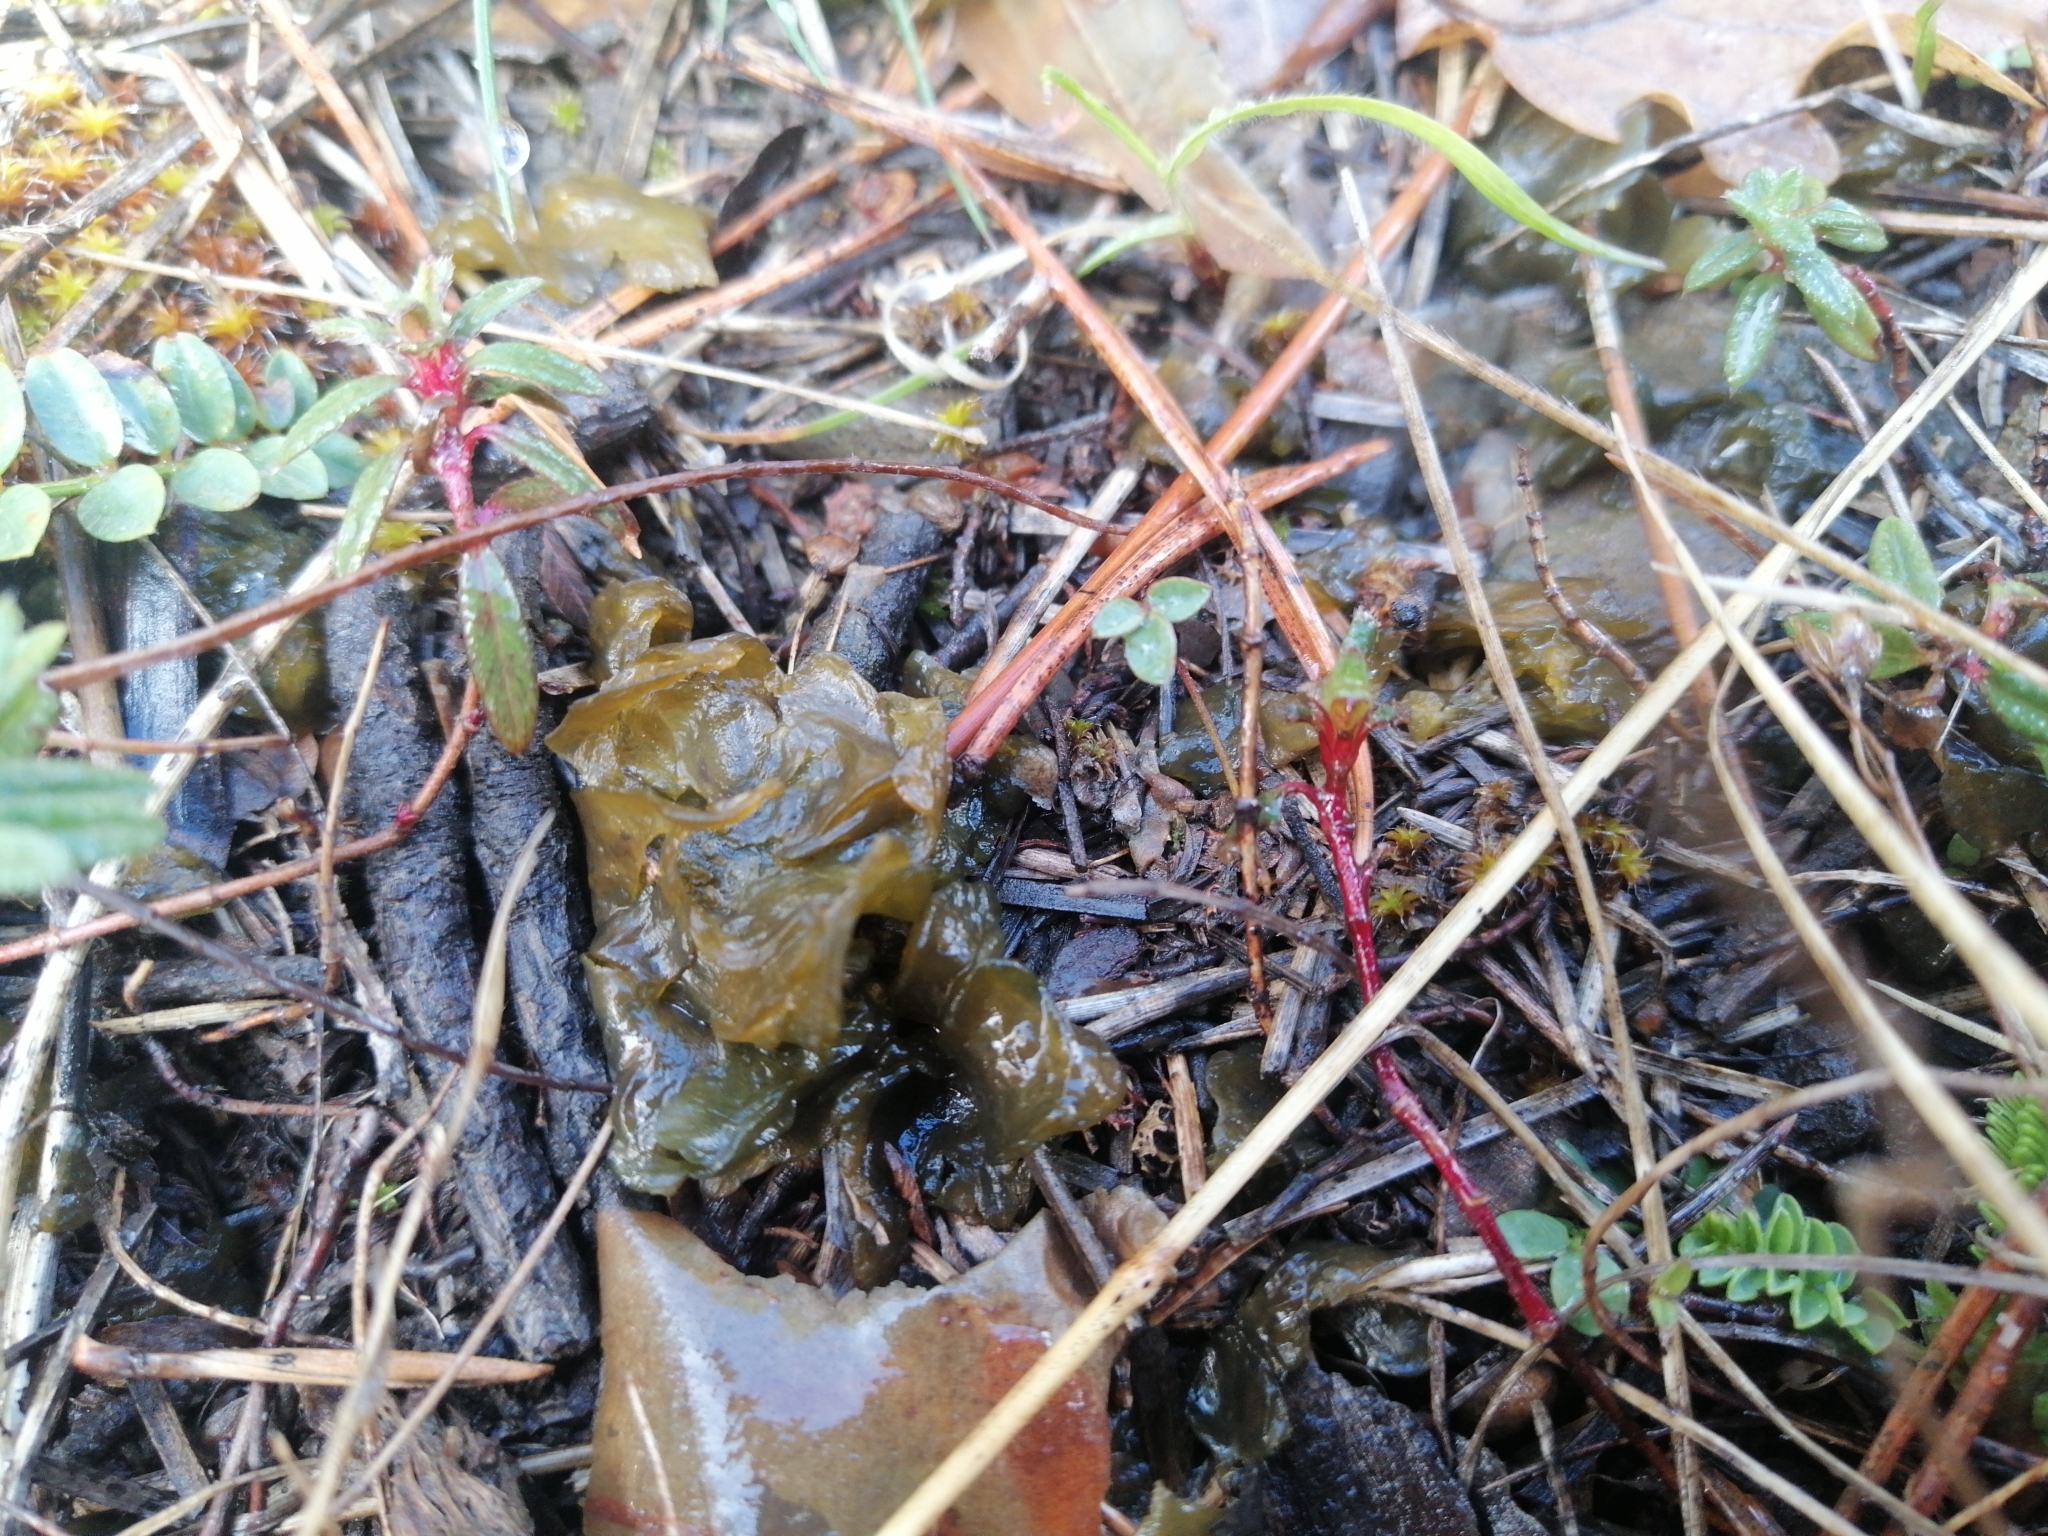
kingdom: Bacteria
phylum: Cyanobacteria
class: Cyanobacteriia
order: Cyanobacteriales
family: Nostocaceae
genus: Nostoc
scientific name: Nostoc commune
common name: Star jelly
